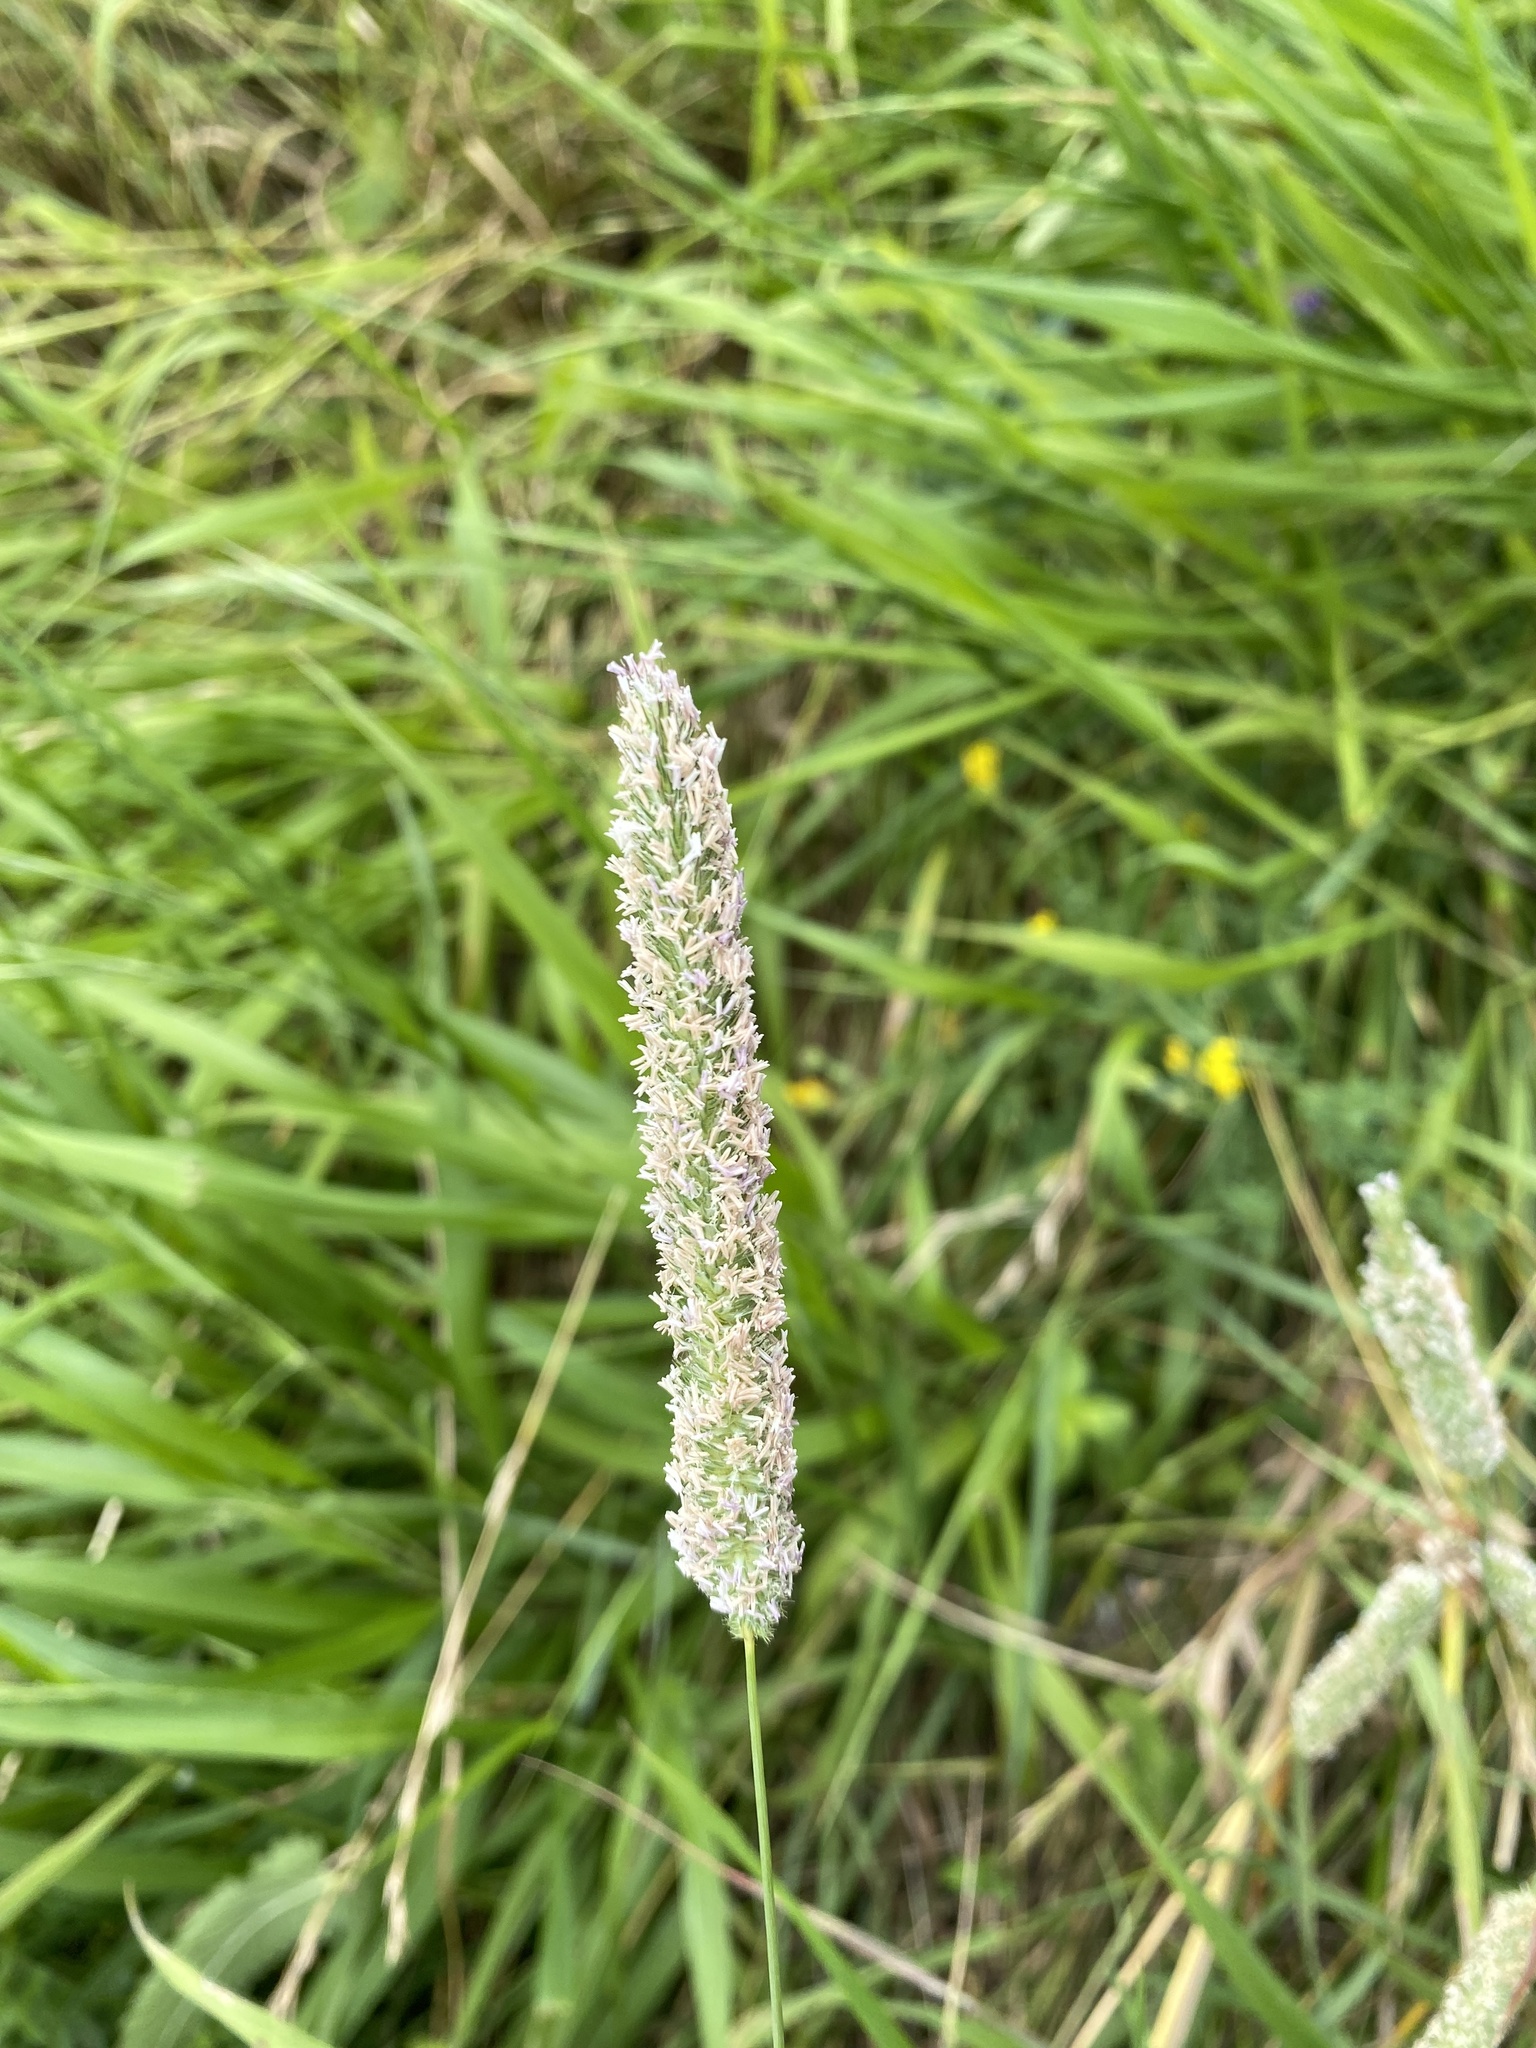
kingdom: Plantae
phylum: Tracheophyta
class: Liliopsida
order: Poales
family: Poaceae
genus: Phleum
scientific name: Phleum pratense
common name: Timothy grass
